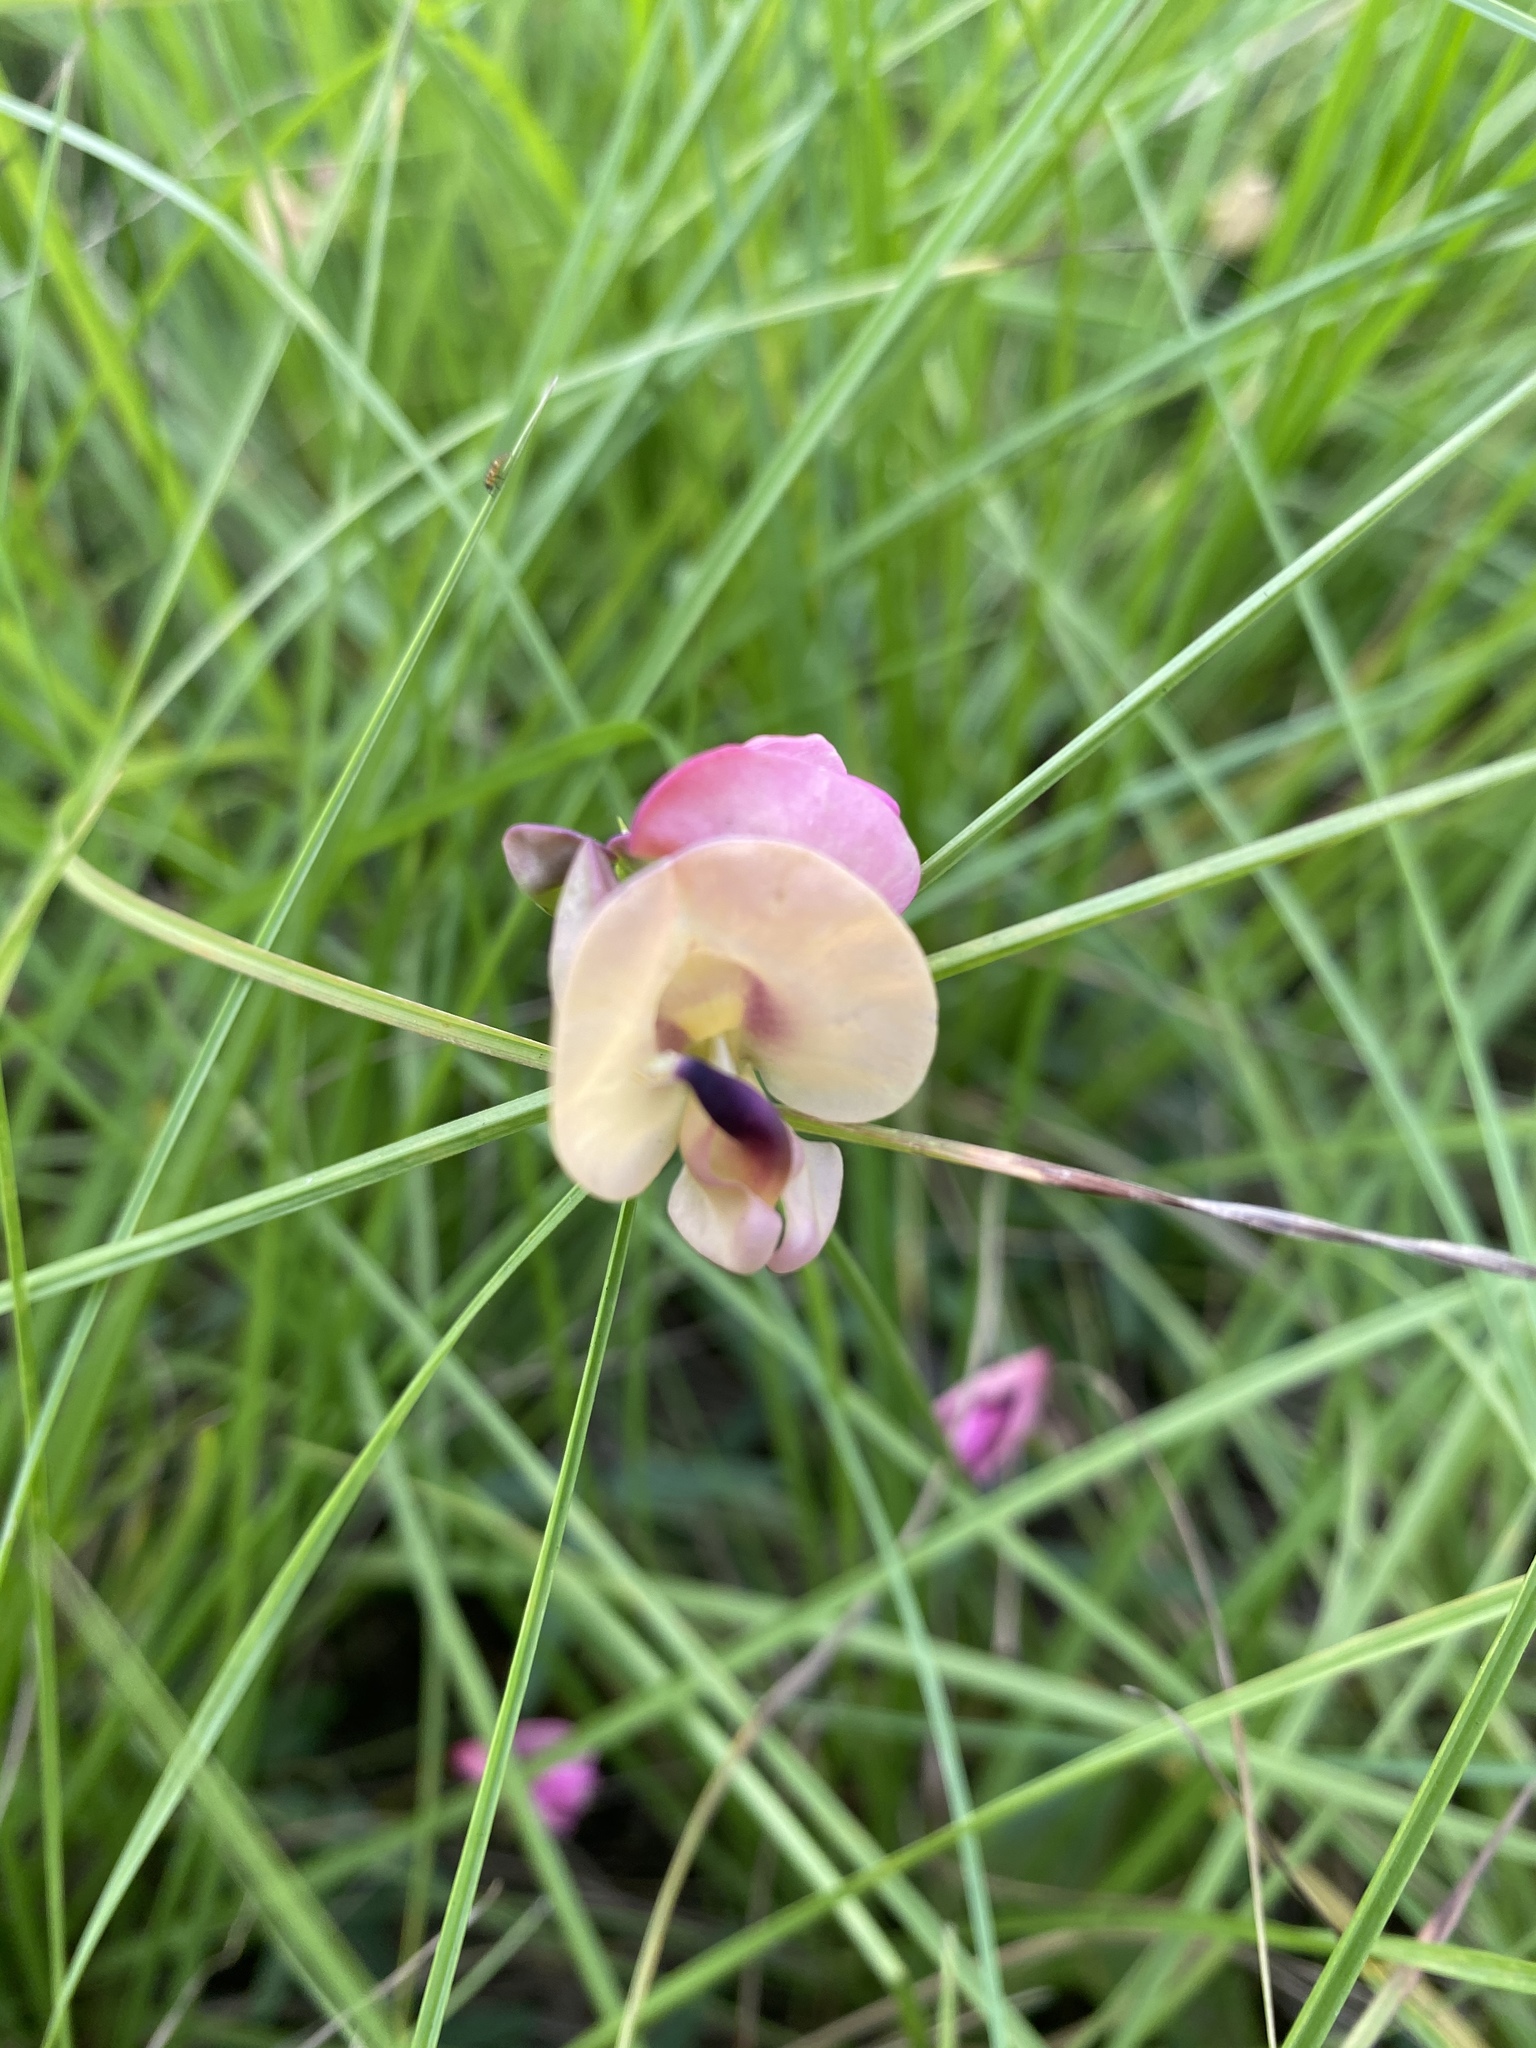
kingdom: Plantae
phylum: Tracheophyta
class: Magnoliopsida
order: Fabales
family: Fabaceae
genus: Strophostyles
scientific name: Strophostyles helvola
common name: Trailing wild bean
